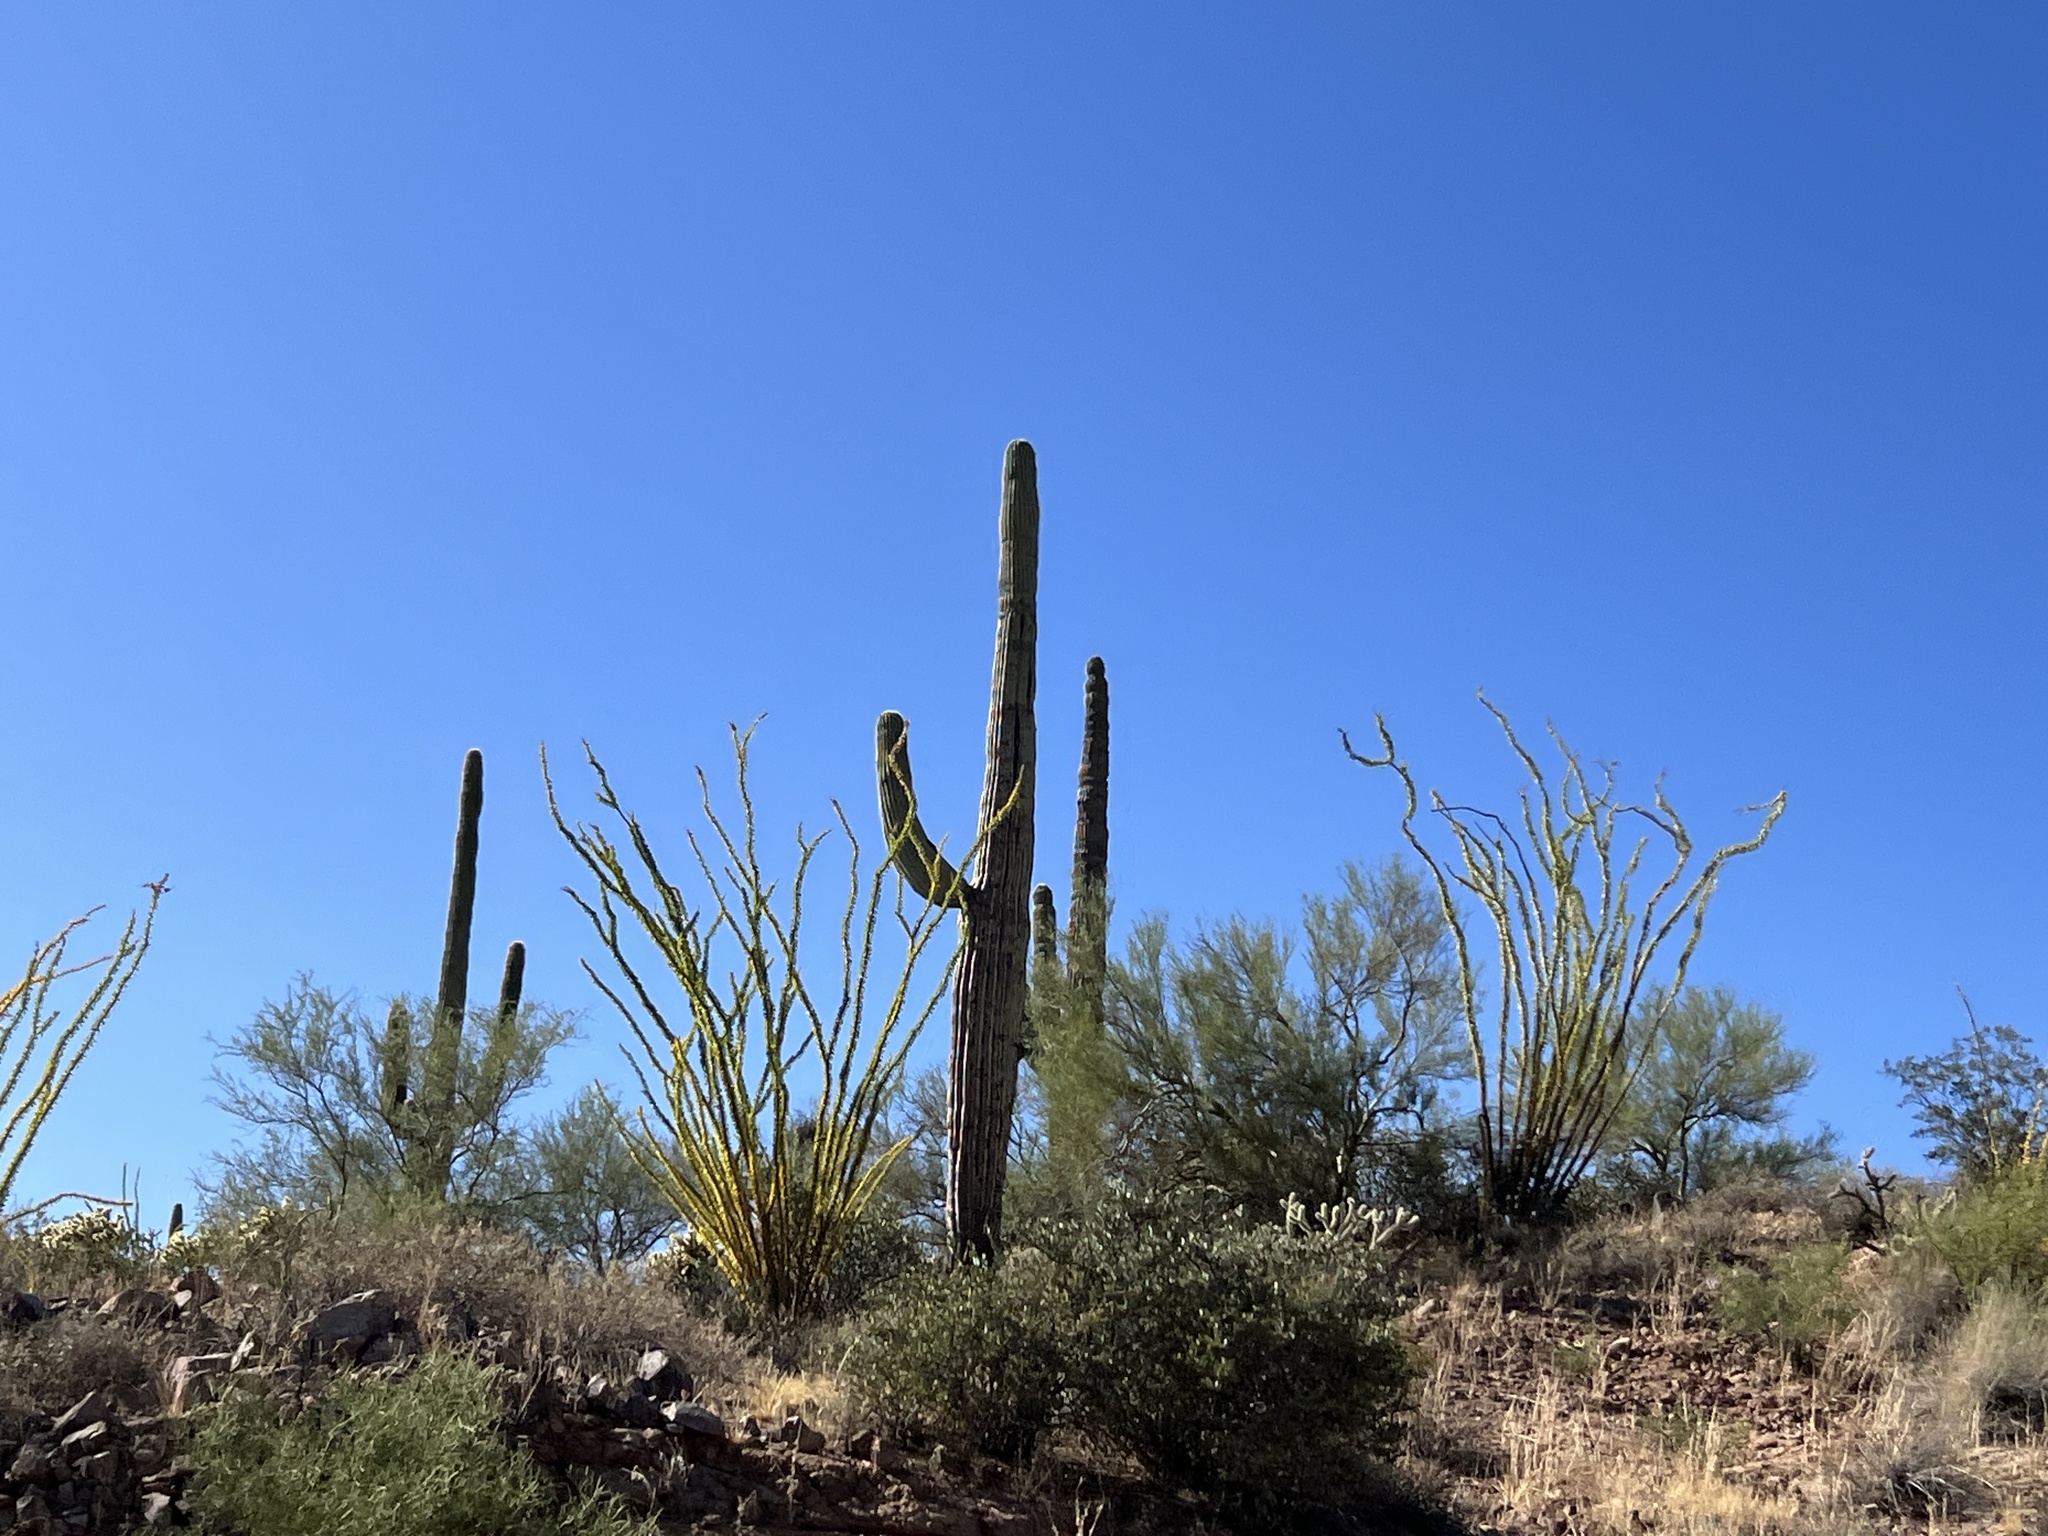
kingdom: Plantae
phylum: Tracheophyta
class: Magnoliopsida
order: Caryophyllales
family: Cactaceae
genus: Carnegiea
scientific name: Carnegiea gigantea
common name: Saguaro
